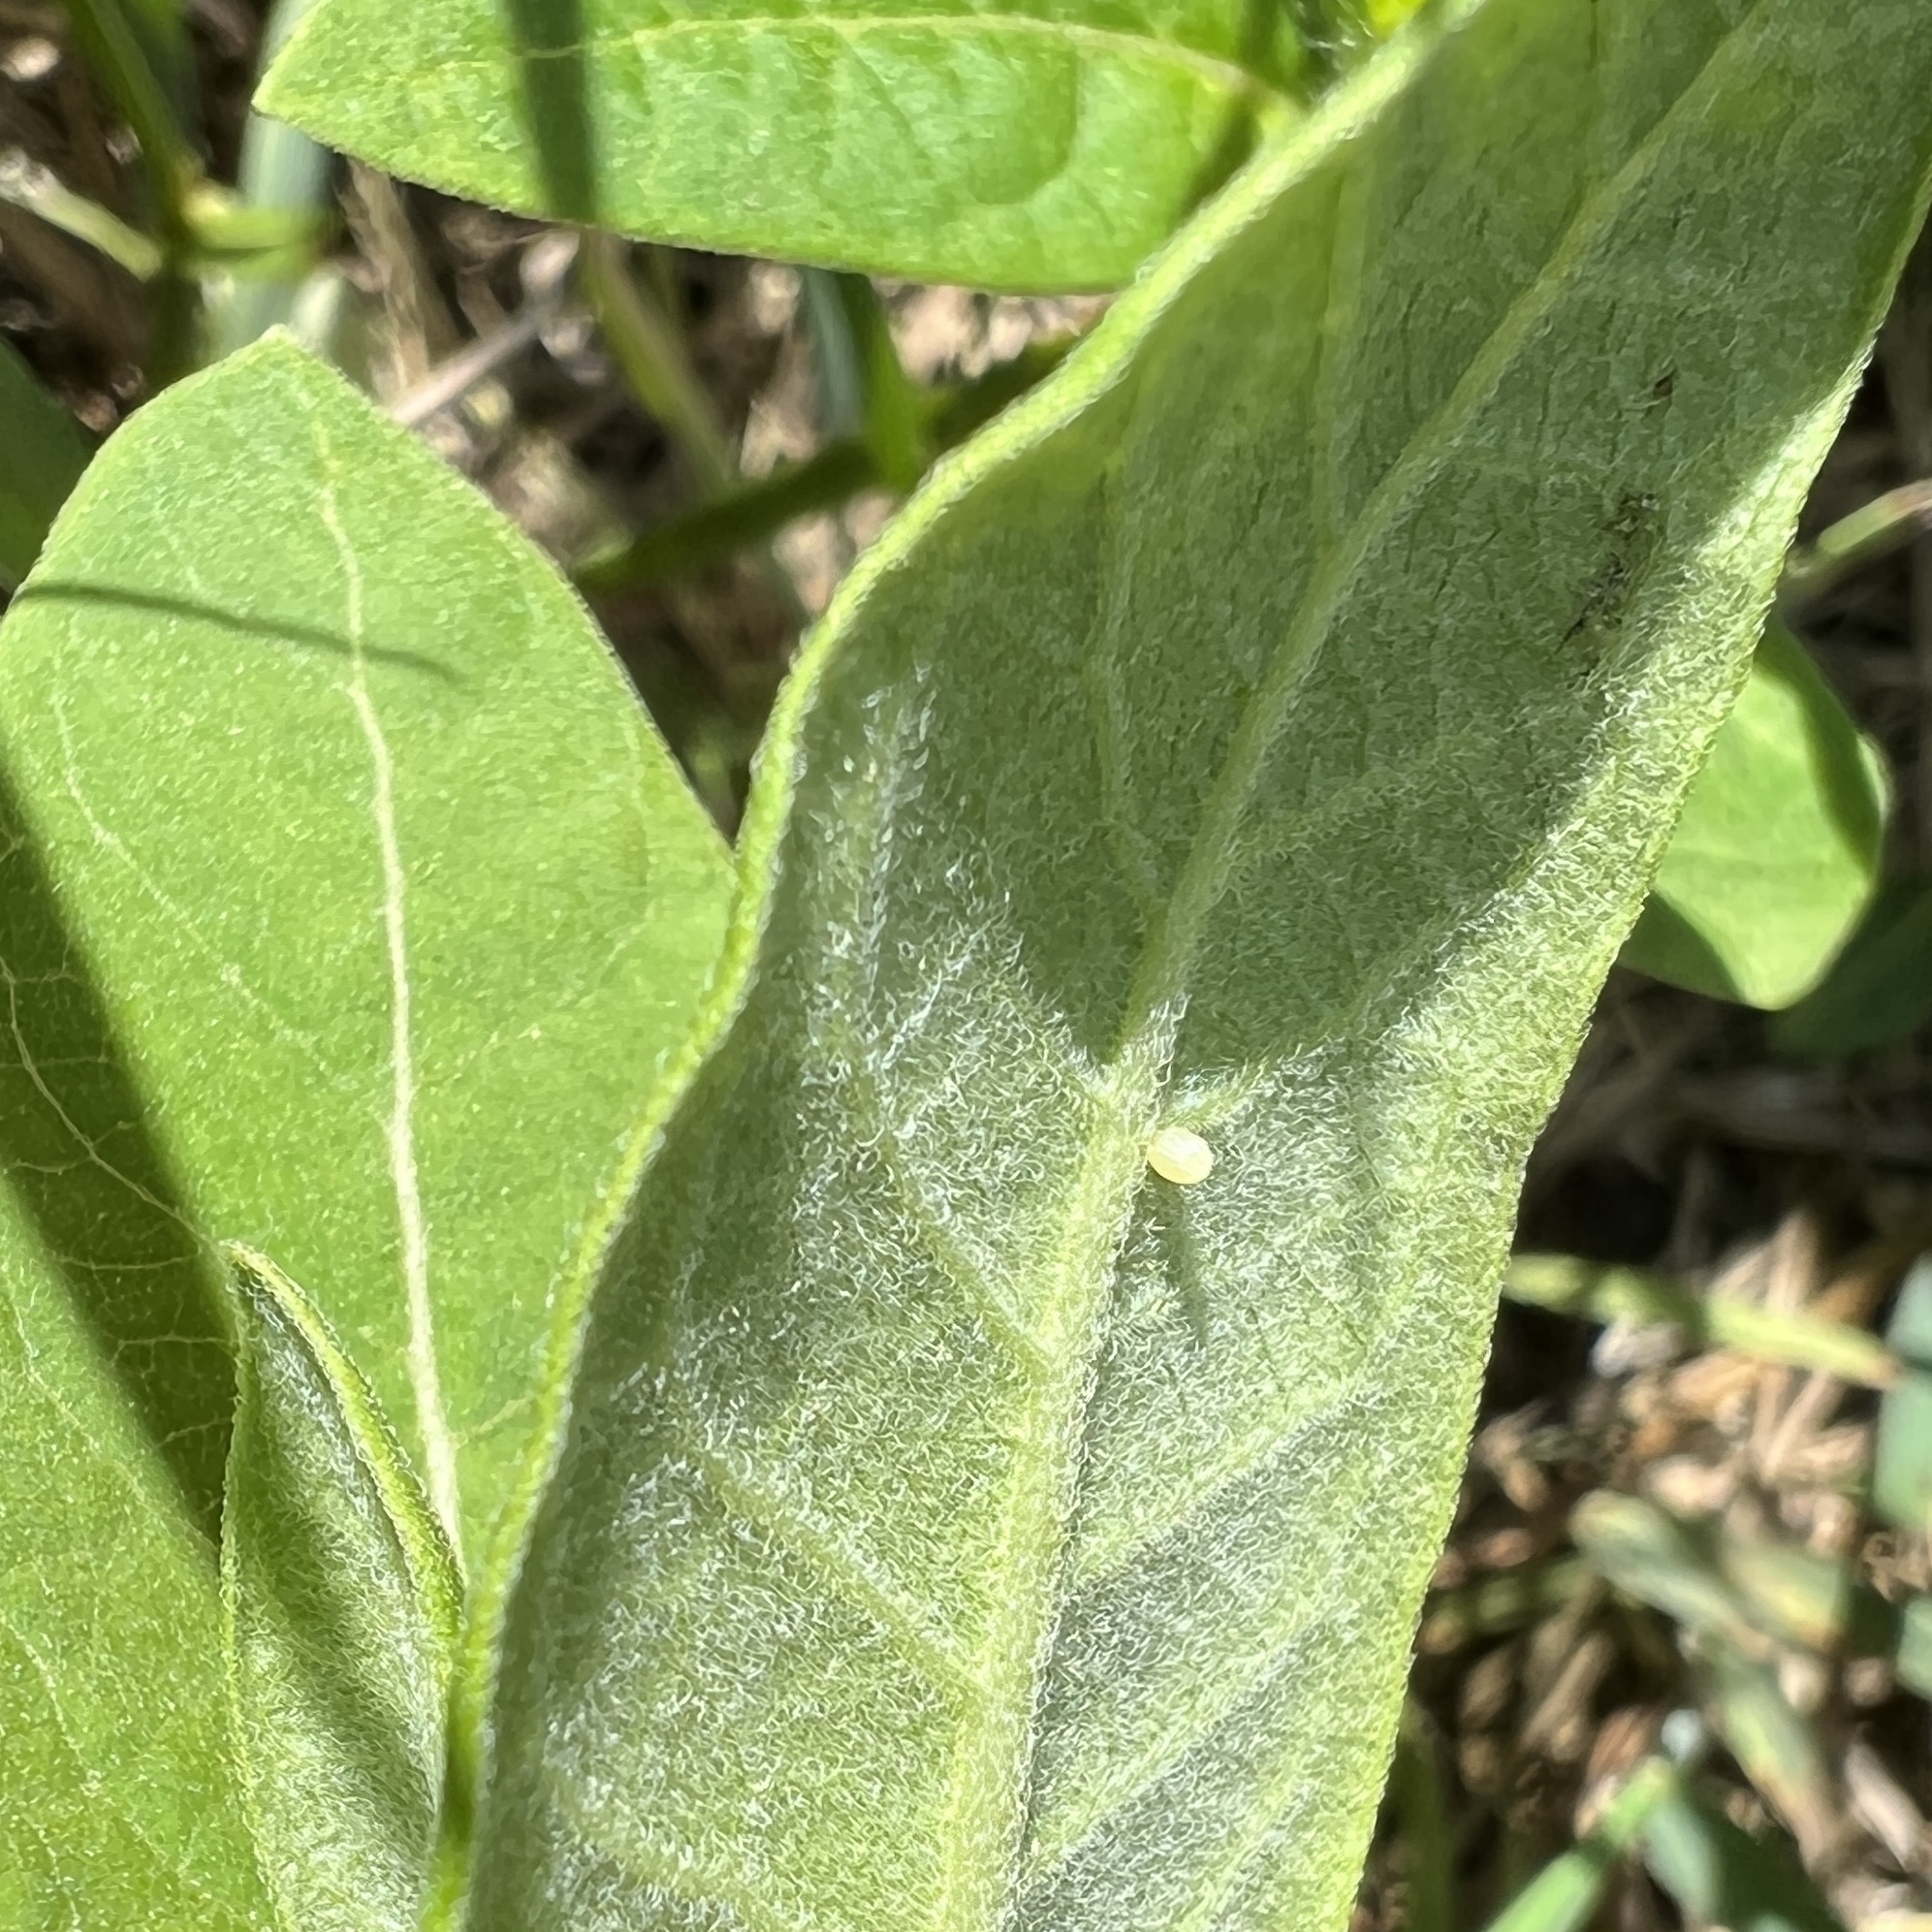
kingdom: Animalia
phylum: Arthropoda
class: Insecta
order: Lepidoptera
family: Nymphalidae
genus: Danaus
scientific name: Danaus plexippus
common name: Monarch
